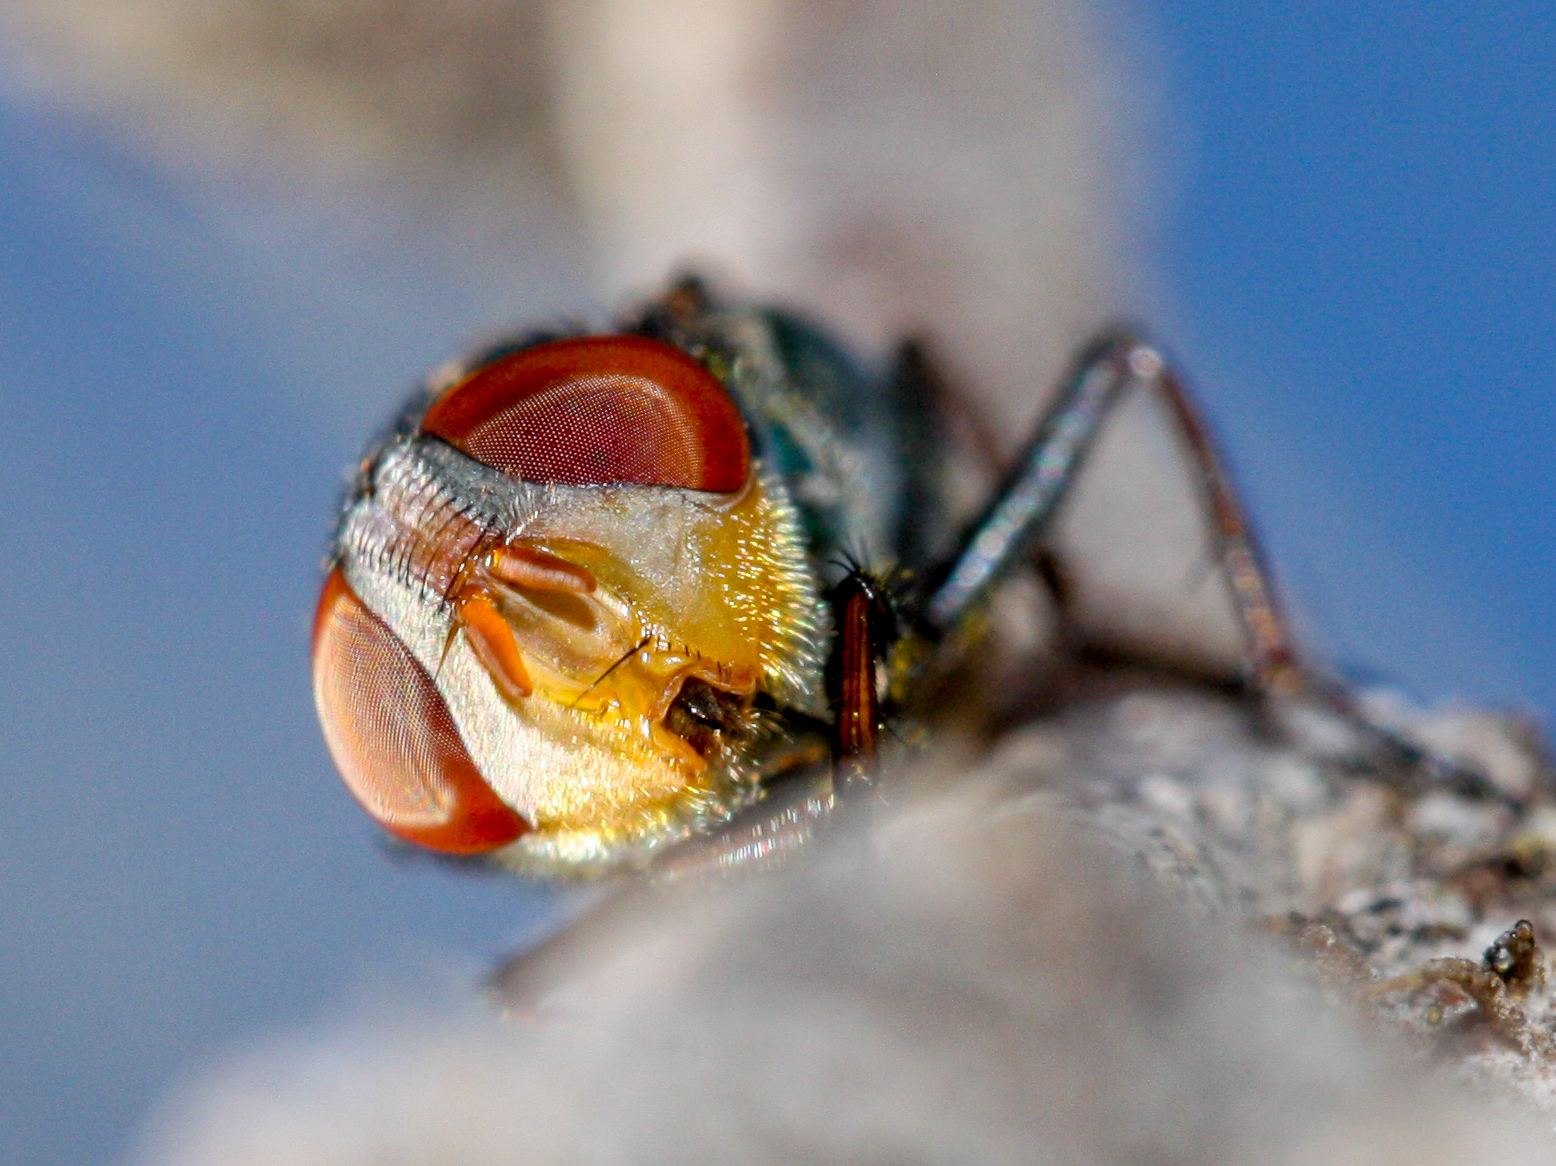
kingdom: Animalia
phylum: Arthropoda
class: Insecta
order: Diptera
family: Calliphoridae
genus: Cochliomyia
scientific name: Cochliomyia macellaria
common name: Secondary screwworm
